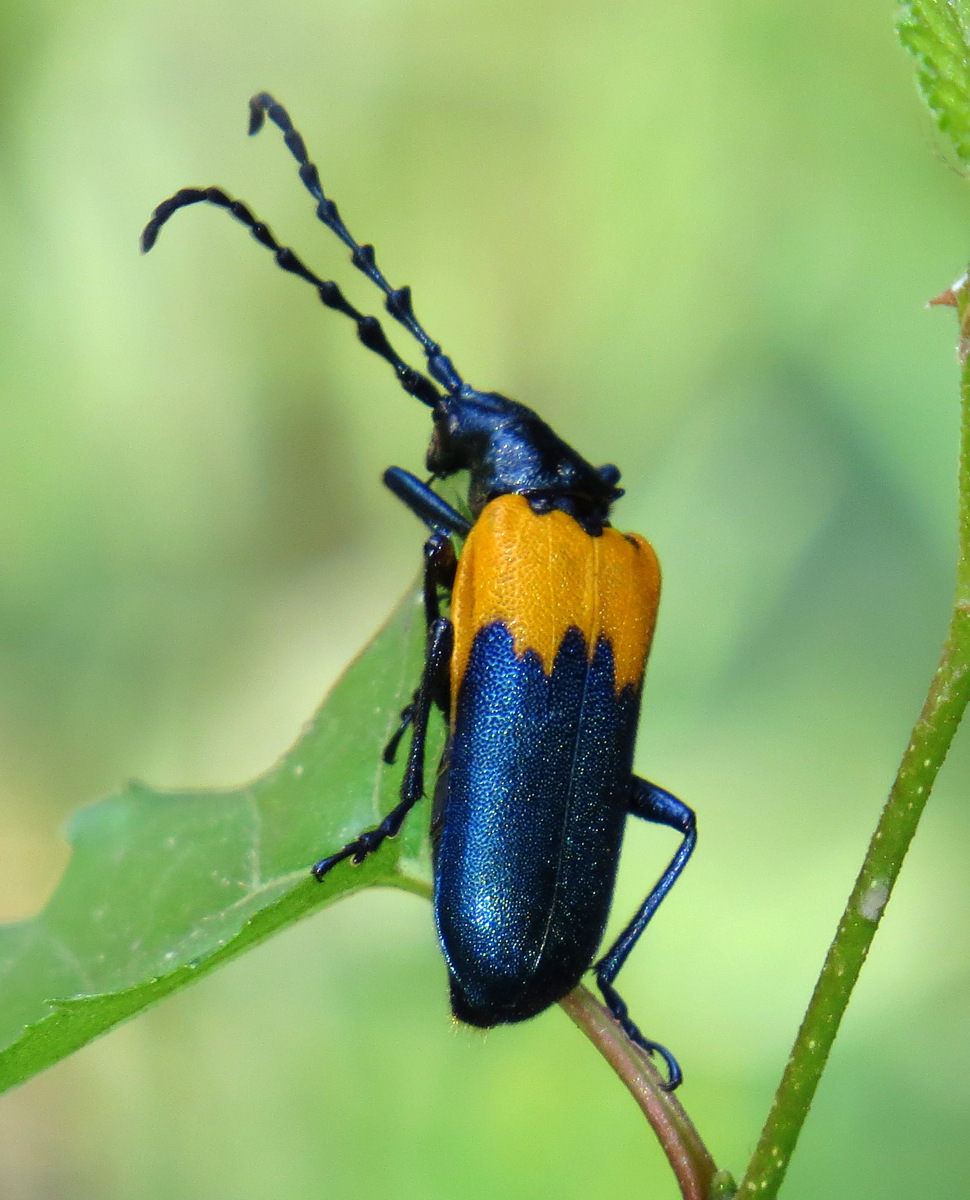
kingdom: Animalia
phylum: Arthropoda
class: Insecta
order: Coleoptera
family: Cerambycidae
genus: Desmocerus
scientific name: Desmocerus palliatus
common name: Eastern elderberry borer
